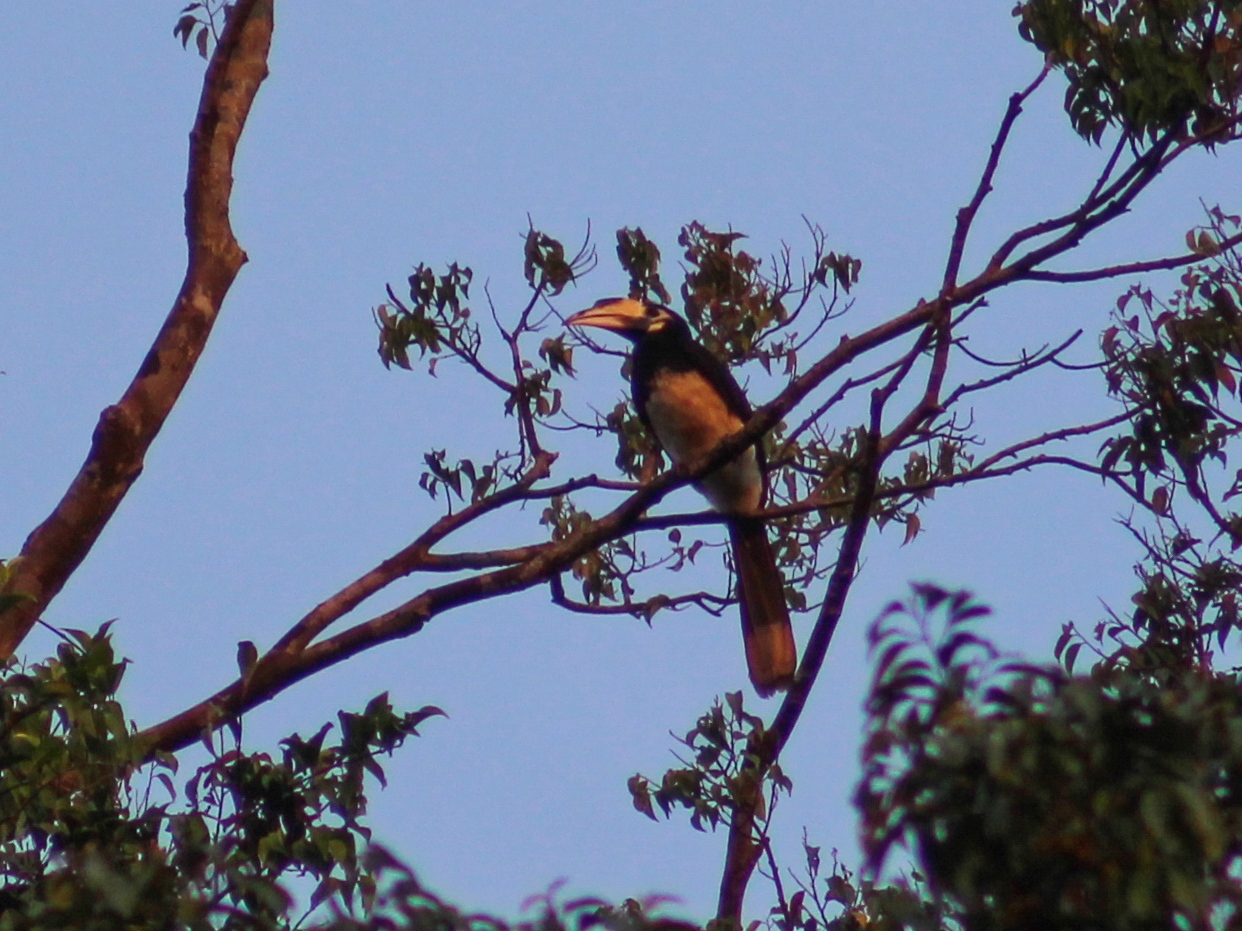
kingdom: Animalia
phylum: Chordata
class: Aves
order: Bucerotiformes
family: Bucerotidae
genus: Anthracoceros
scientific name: Anthracoceros albirostris
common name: Oriental pied-hornbill
